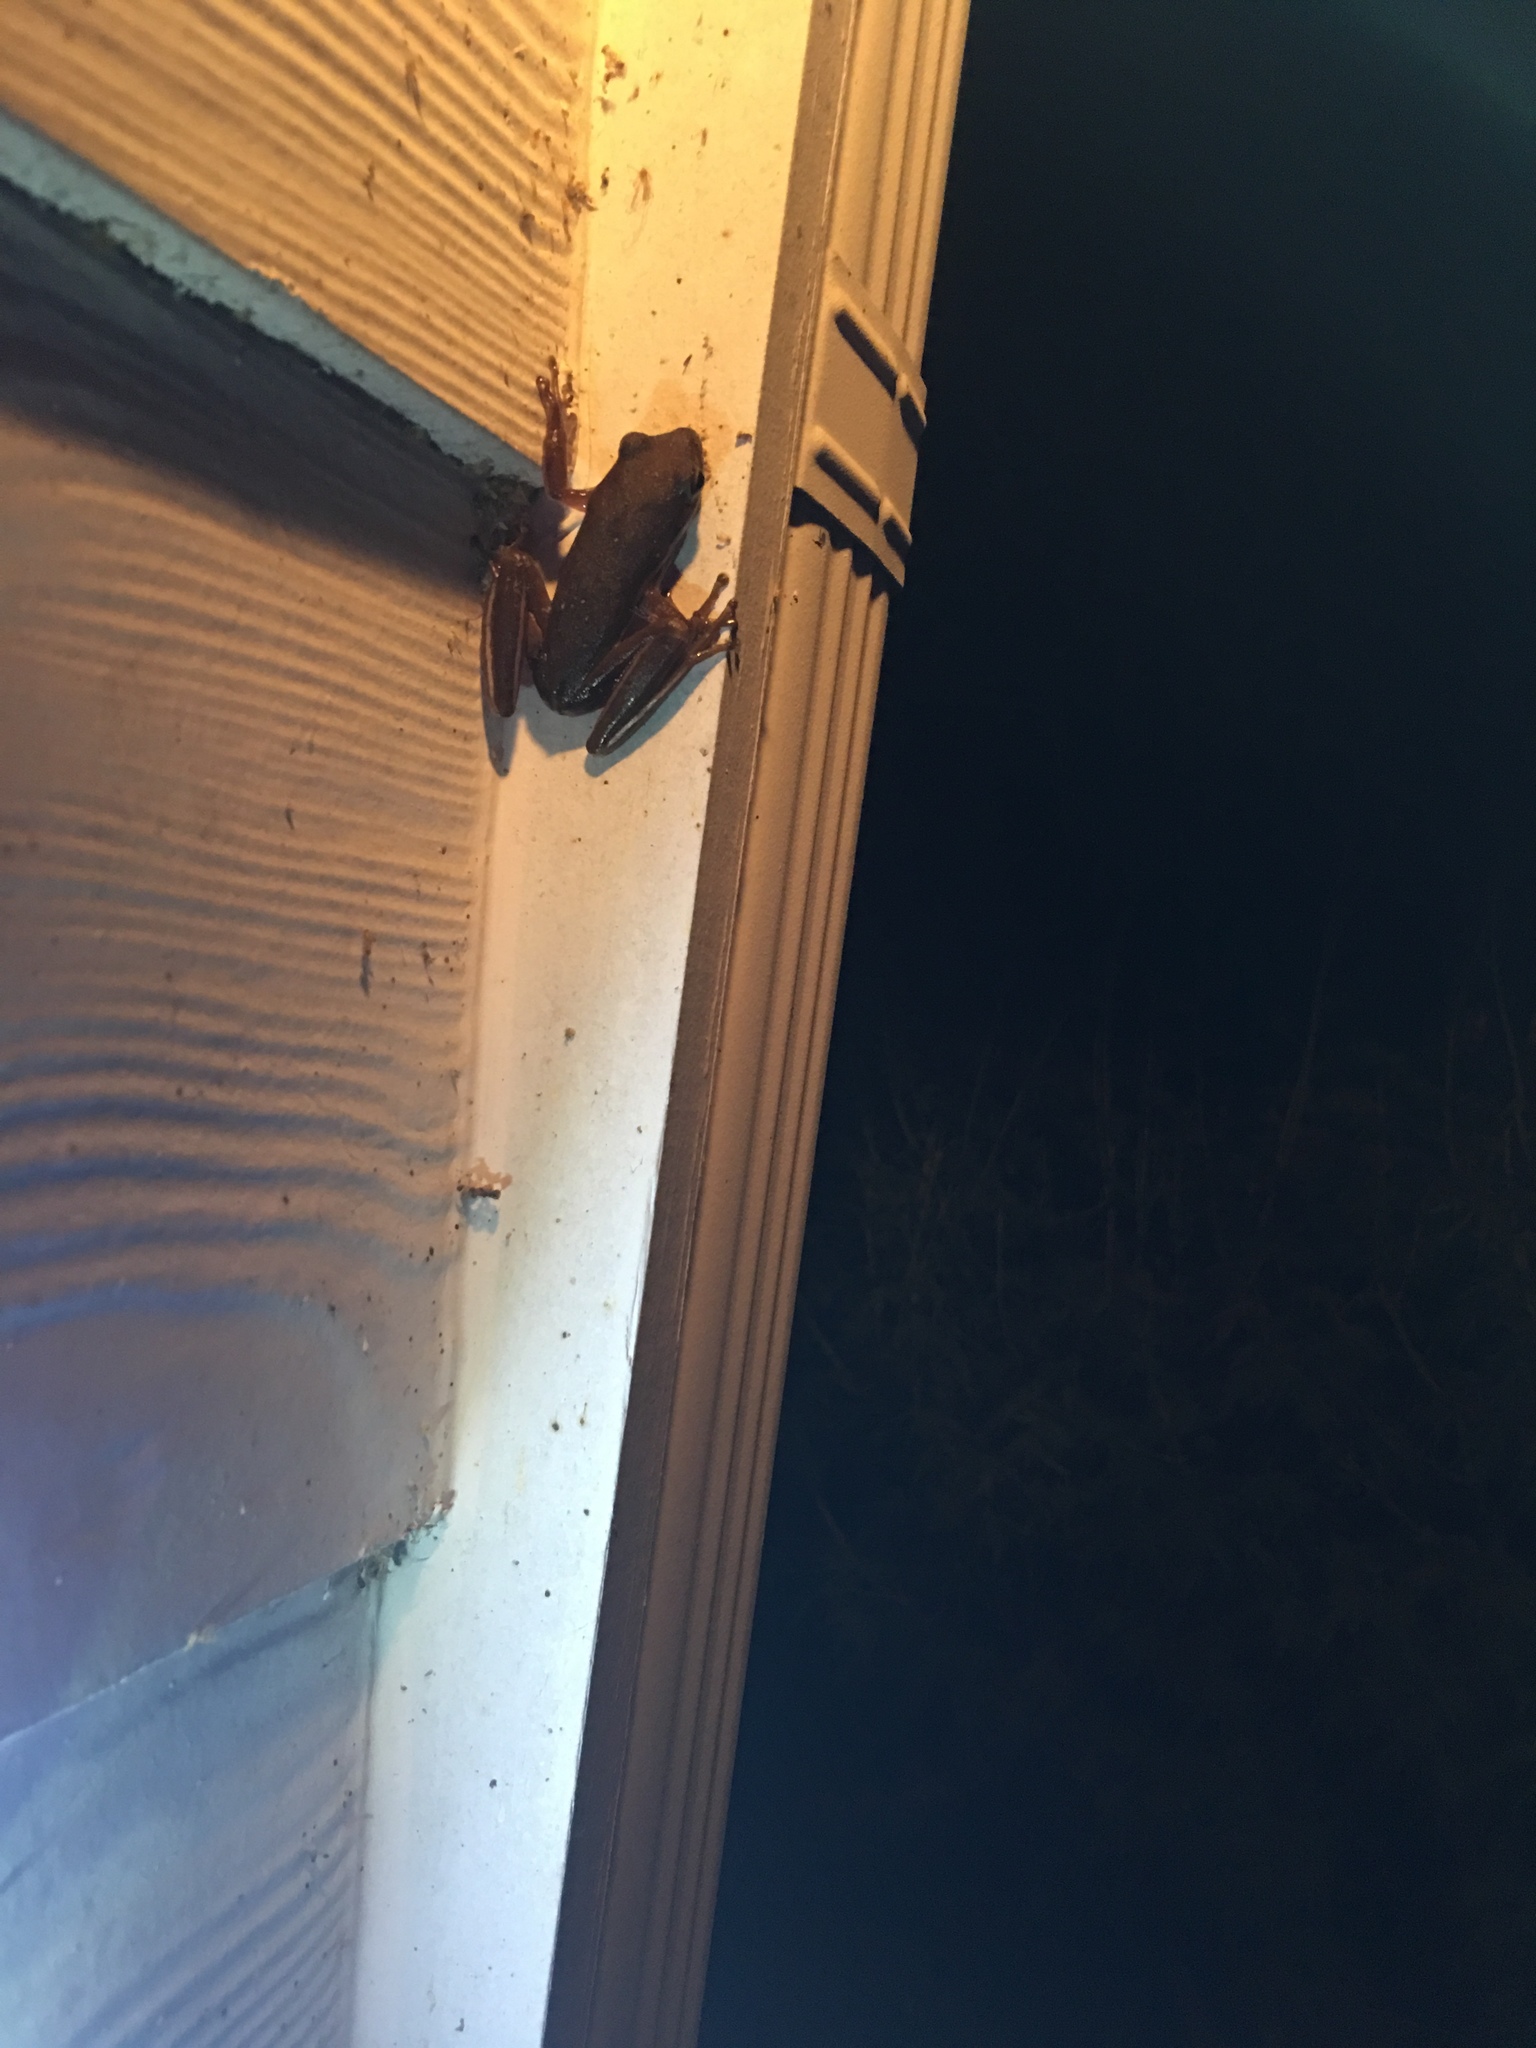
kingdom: Animalia
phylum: Chordata
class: Amphibia
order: Anura
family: Hylidae
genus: Dryophytes
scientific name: Dryophytes cinereus
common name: Green treefrog
